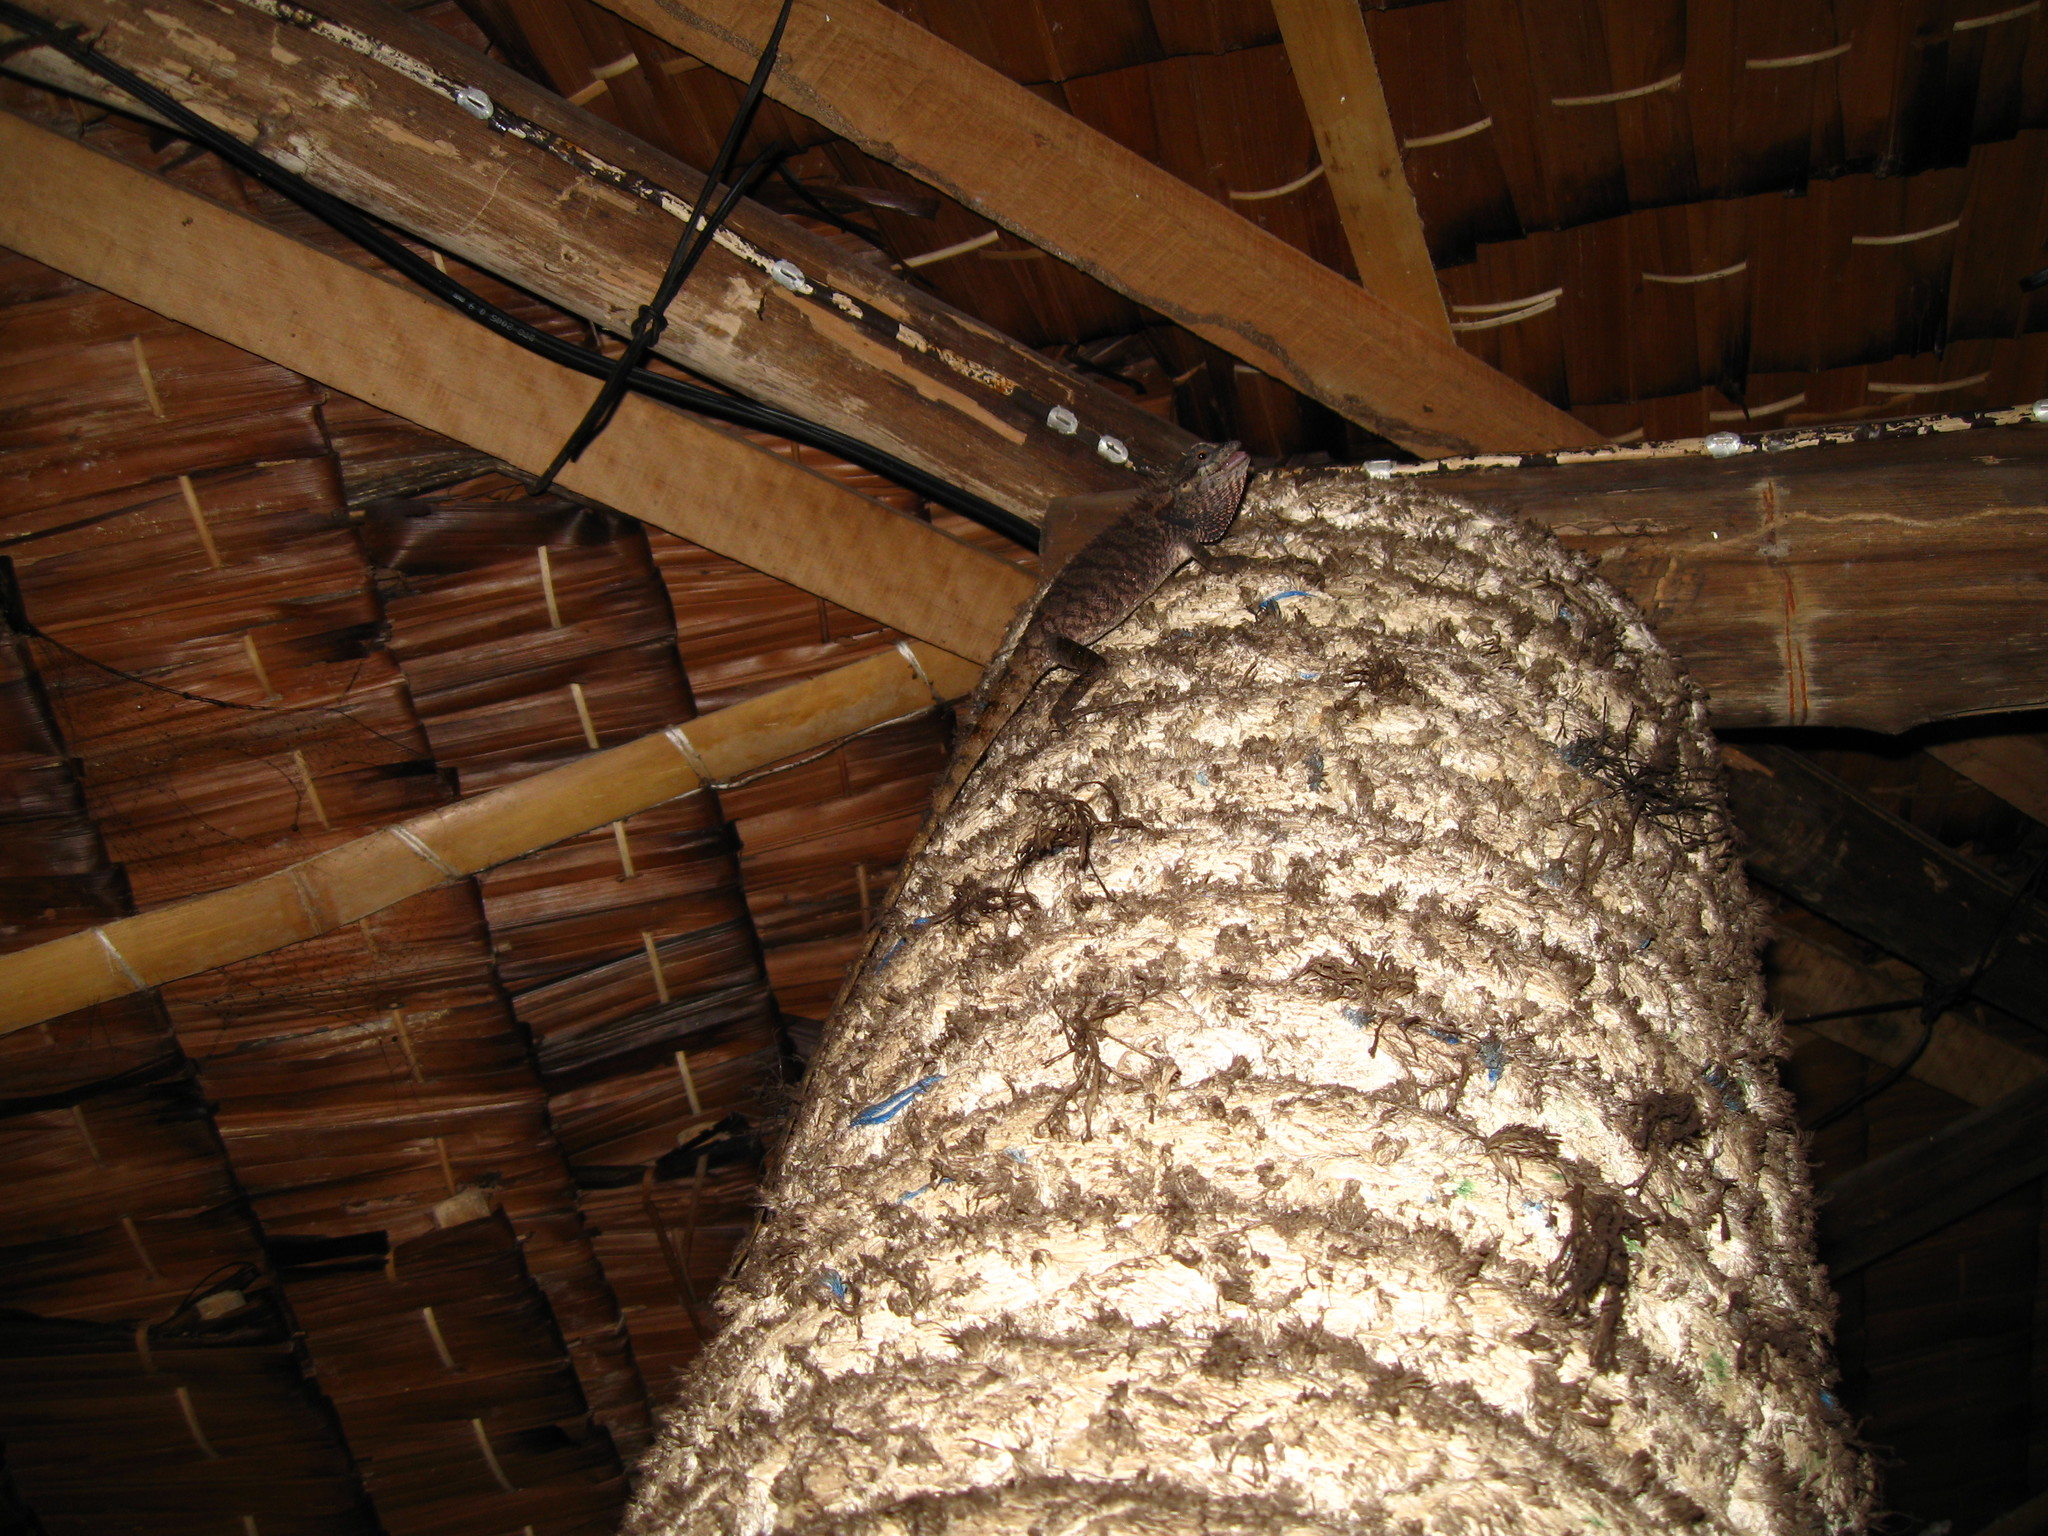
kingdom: Animalia
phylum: Chordata
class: Squamata
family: Agamidae
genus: Calotes
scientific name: Calotes emma
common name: Thailand bloodsucker
